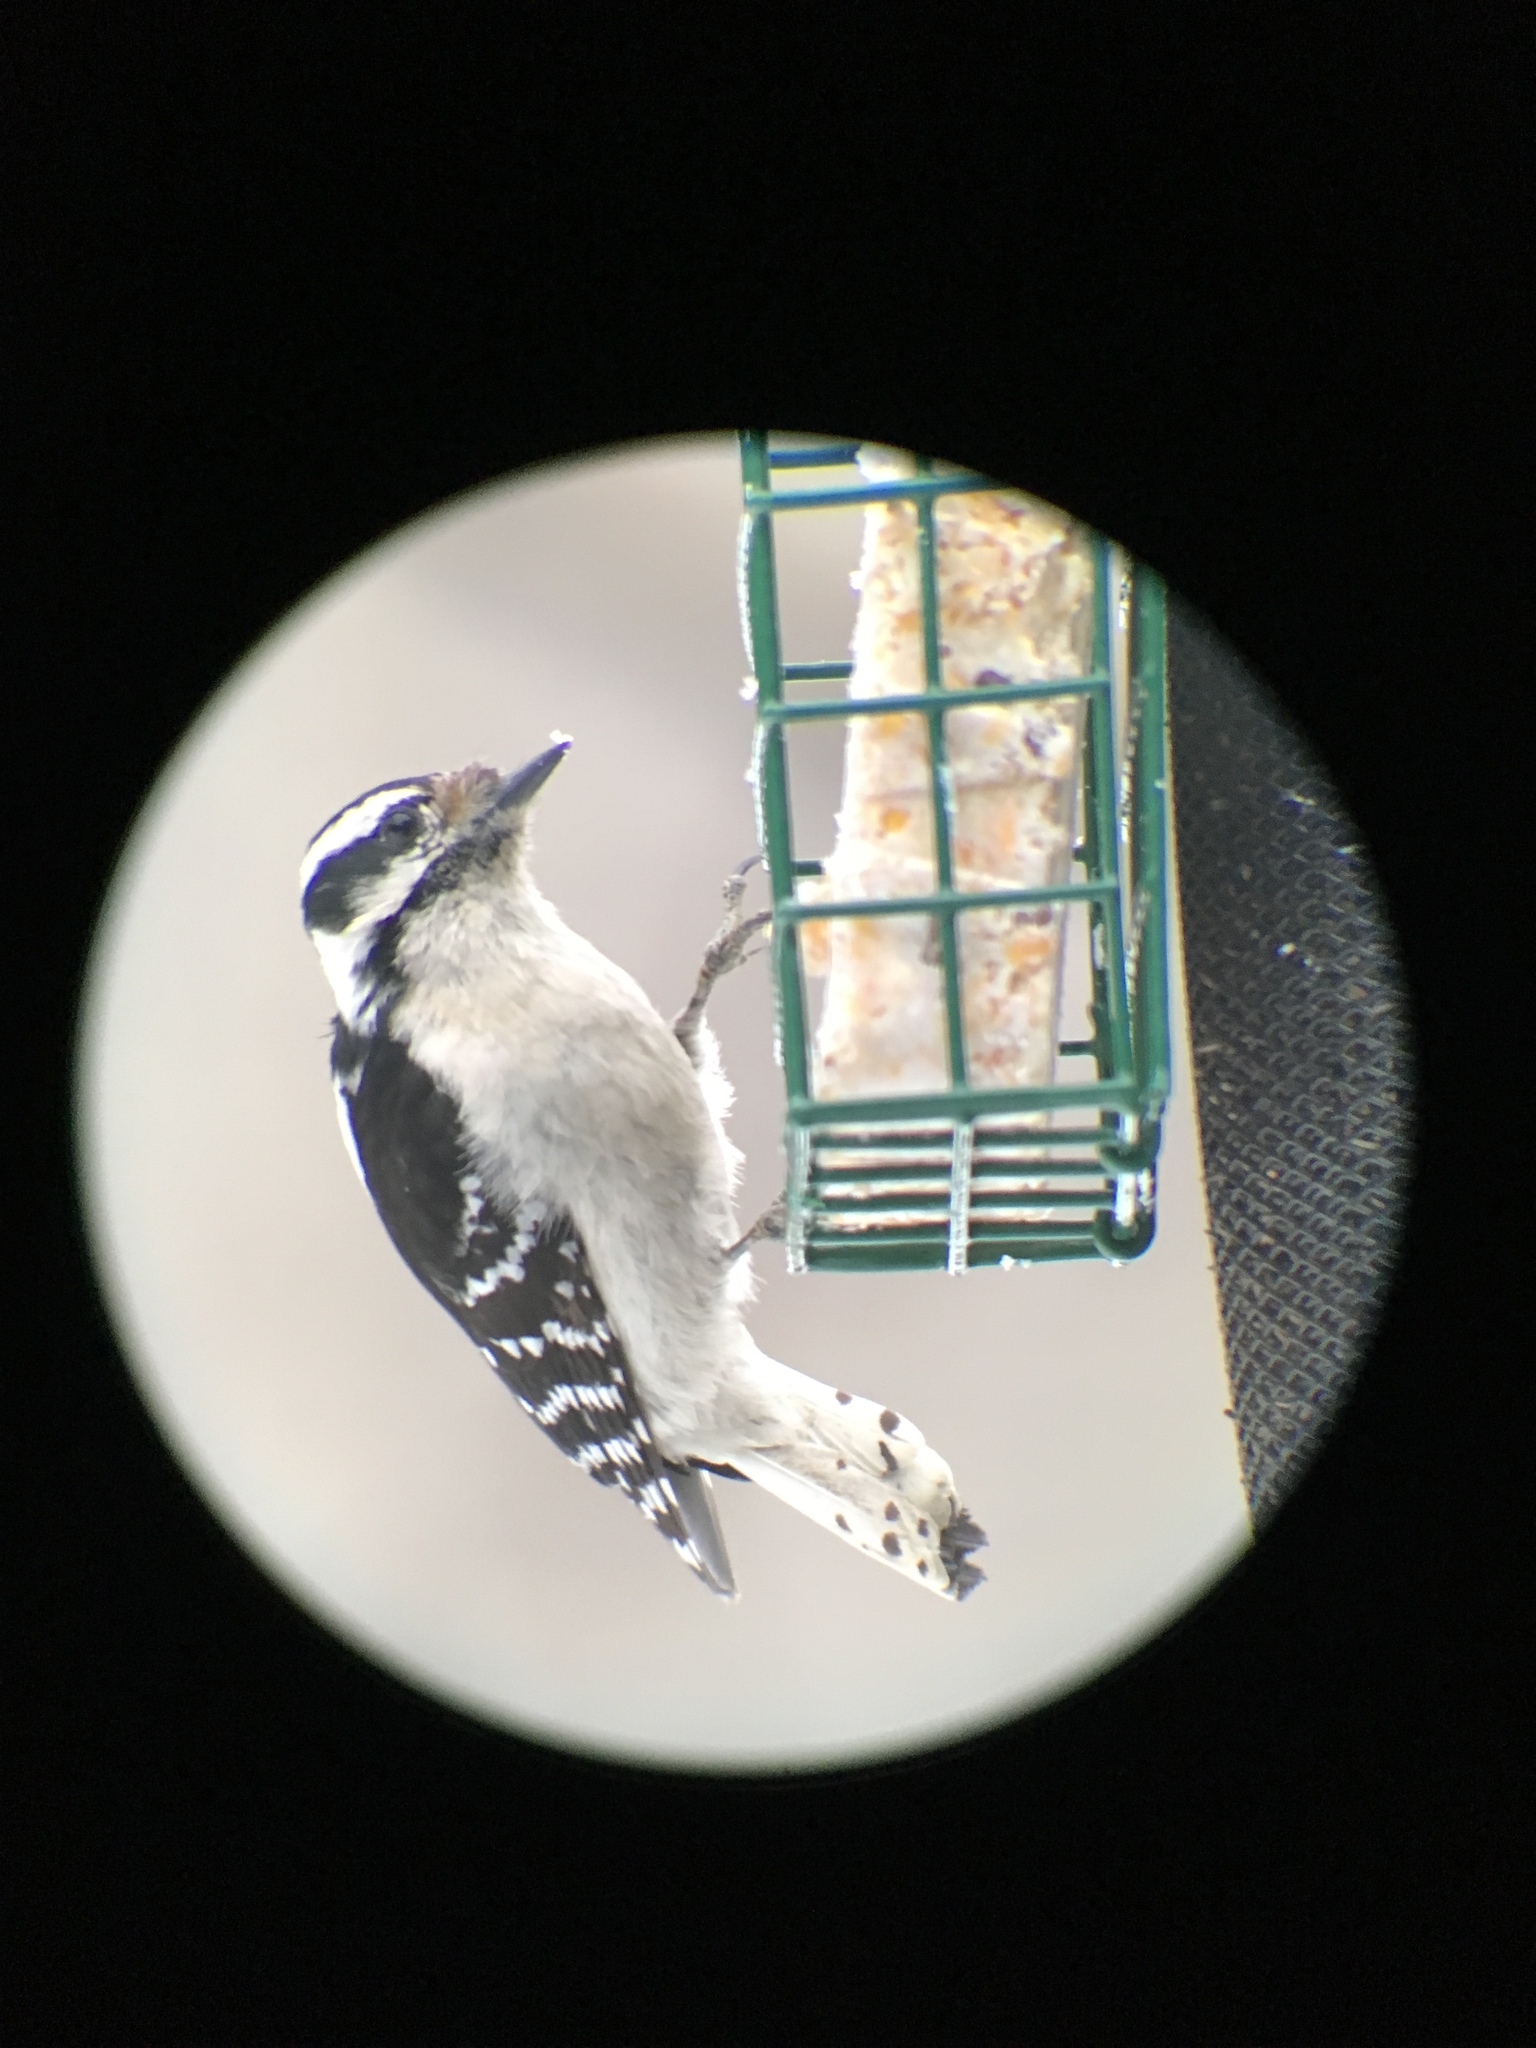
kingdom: Animalia
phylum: Chordata
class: Aves
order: Piciformes
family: Picidae
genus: Dryobates
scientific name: Dryobates pubescens
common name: Downy woodpecker
